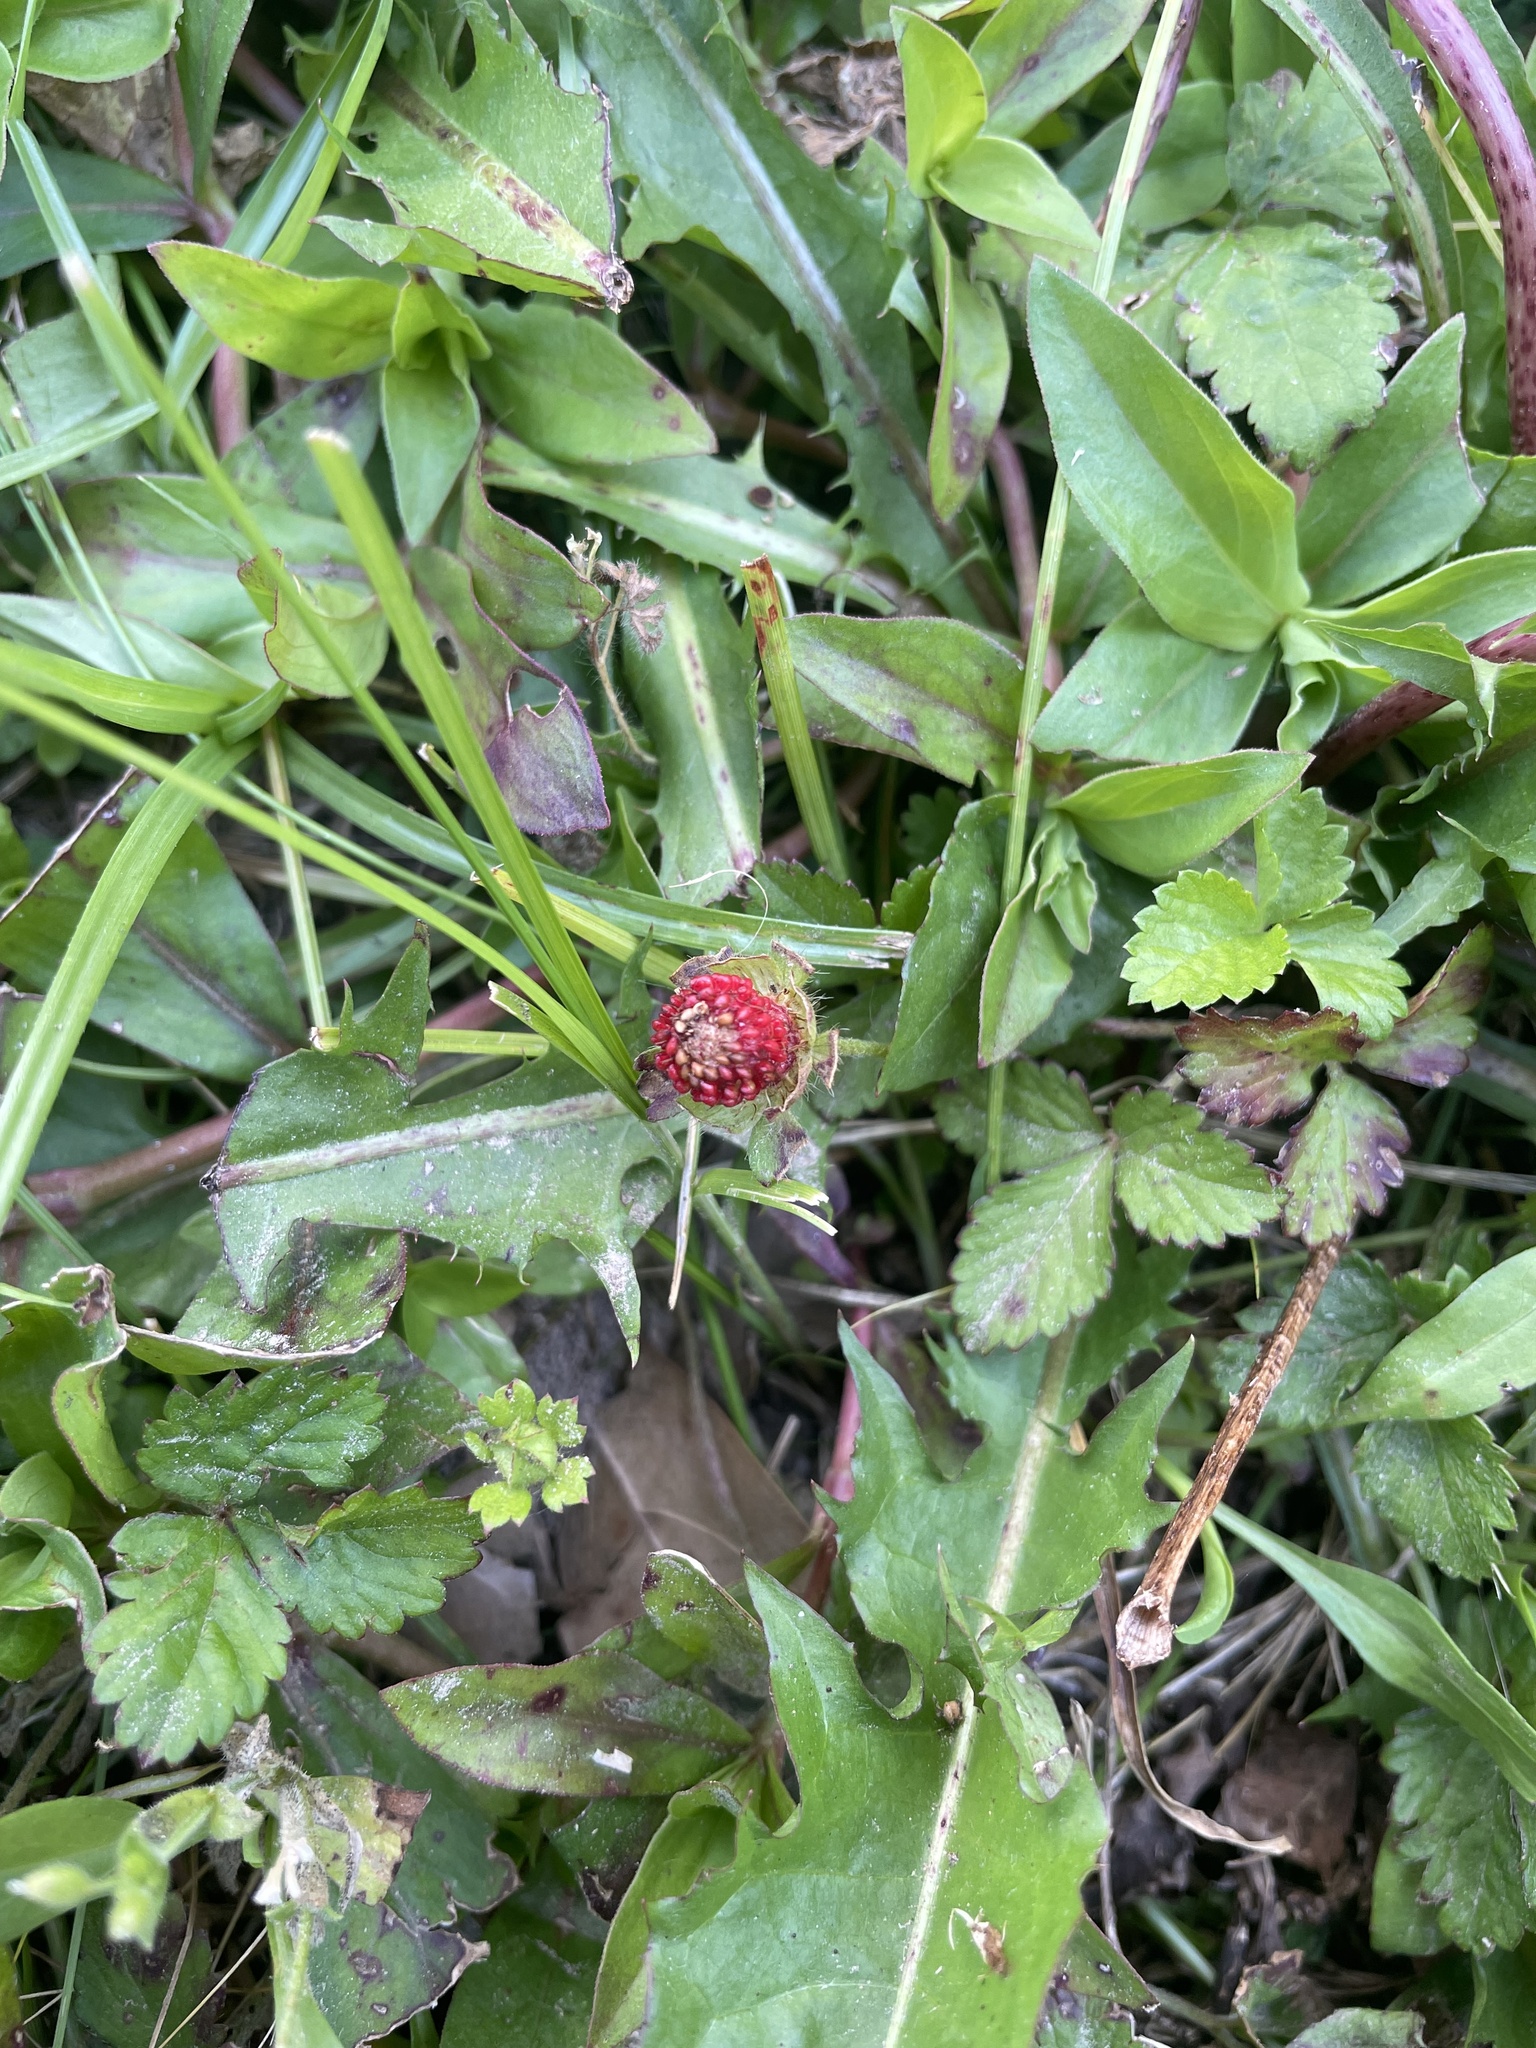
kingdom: Plantae
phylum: Tracheophyta
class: Magnoliopsida
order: Rosales
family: Rosaceae
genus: Potentilla
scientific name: Potentilla indica
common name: Yellow-flowered strawberry
